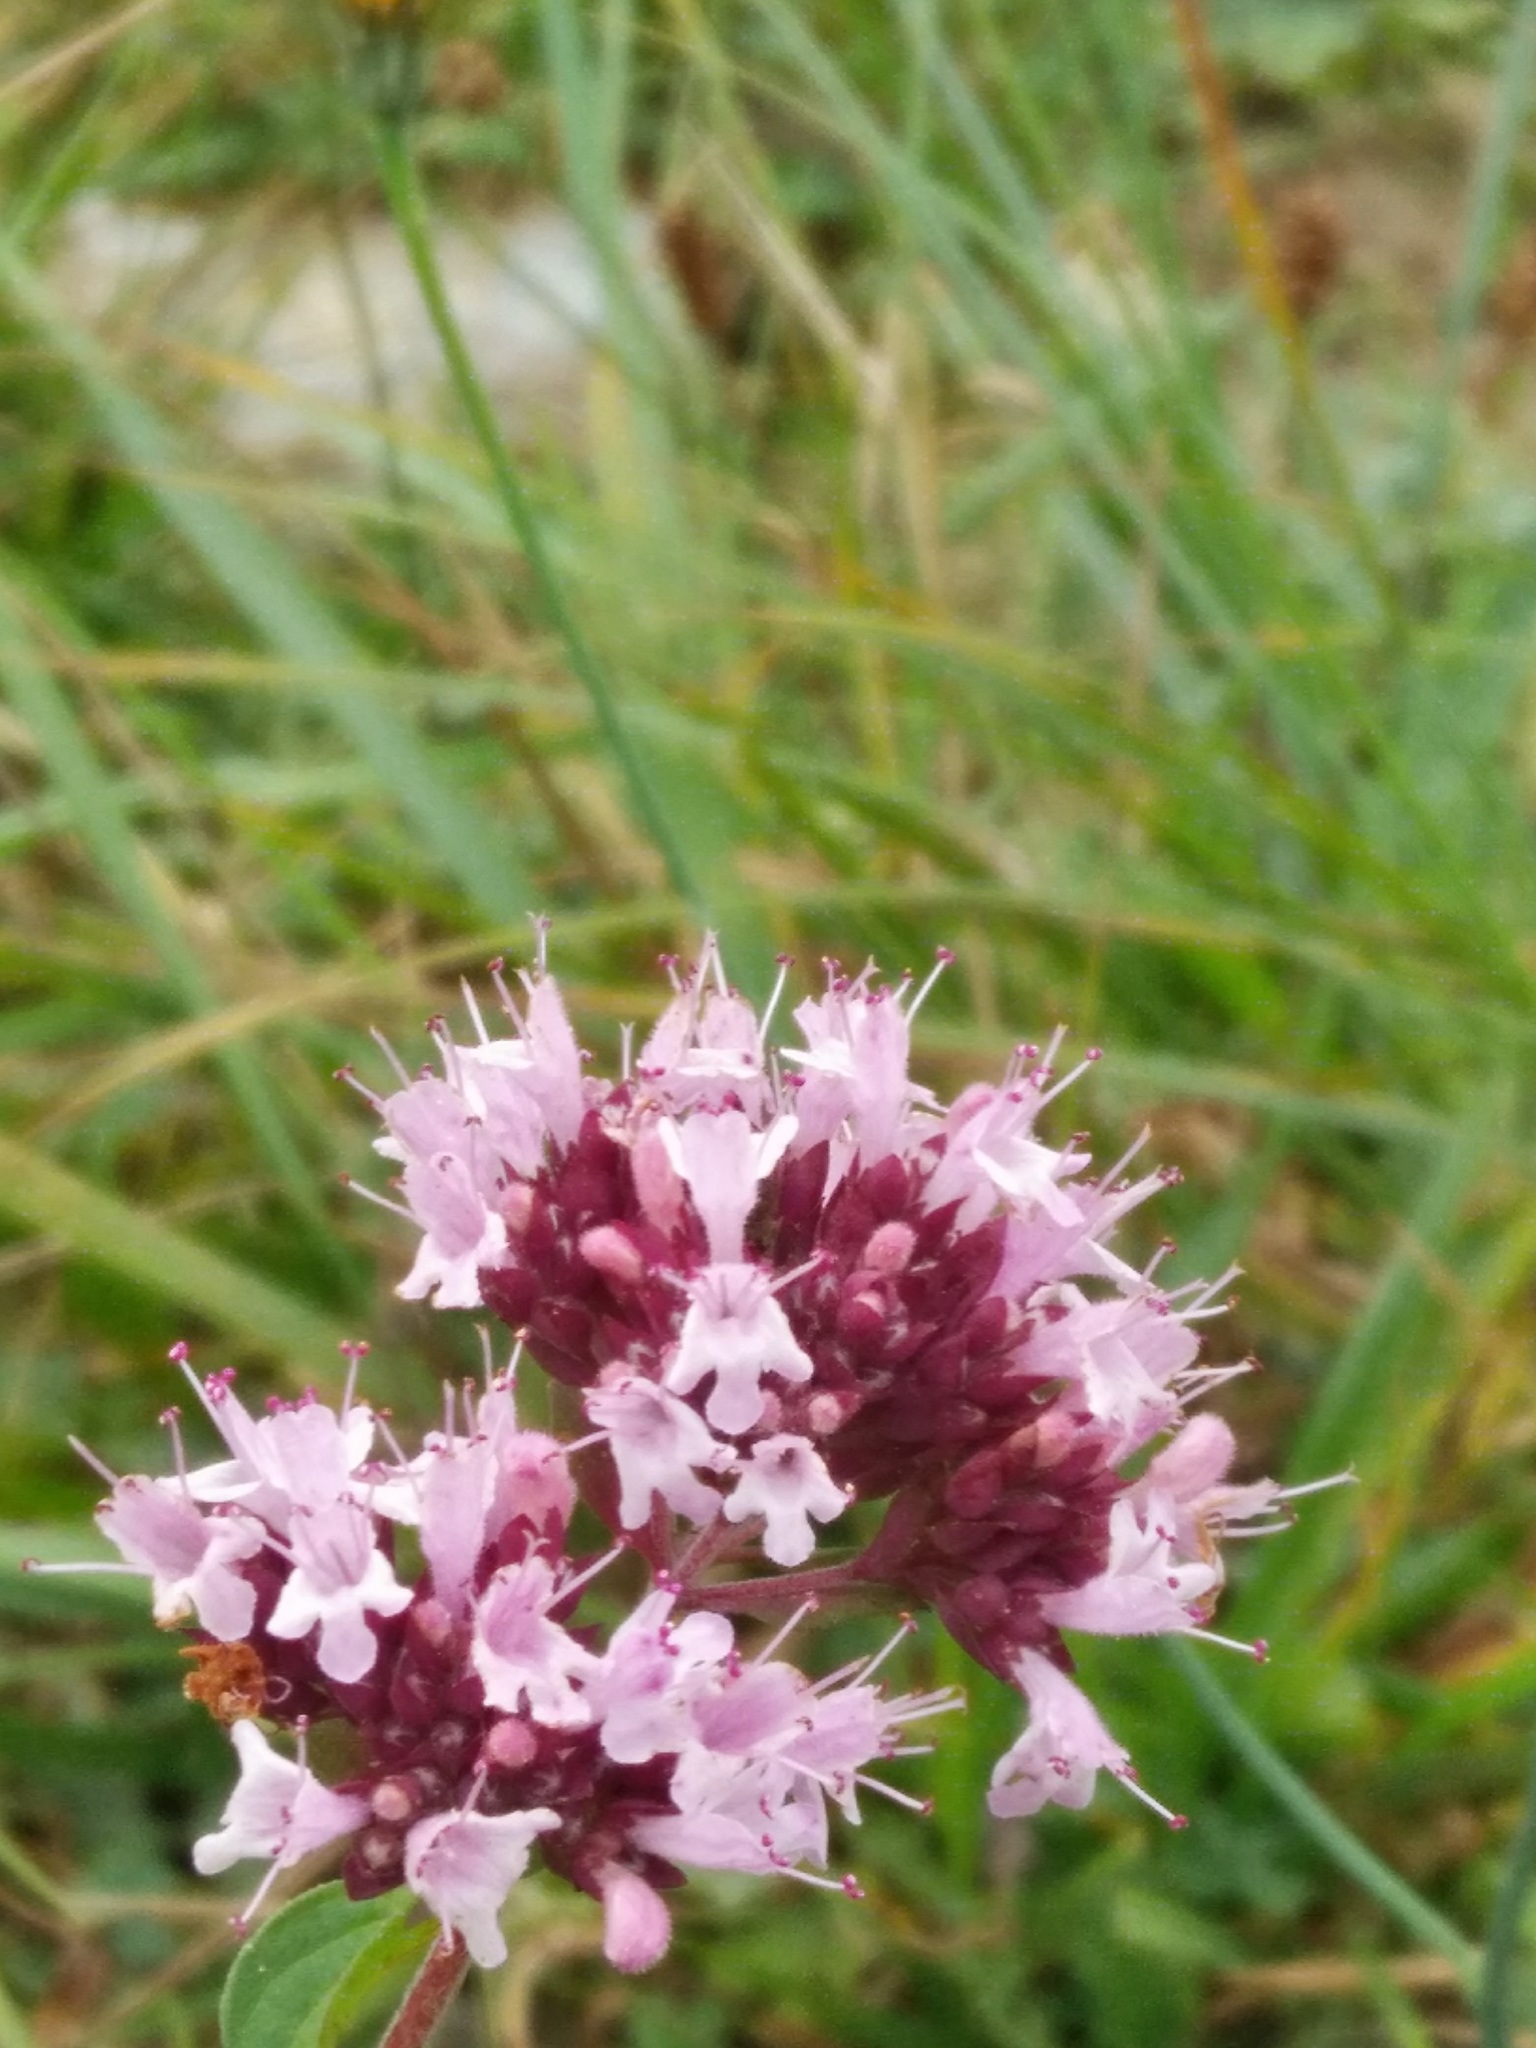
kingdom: Plantae
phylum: Tracheophyta
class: Magnoliopsida
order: Lamiales
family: Lamiaceae
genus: Origanum
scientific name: Origanum vulgare
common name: Wild marjoram
